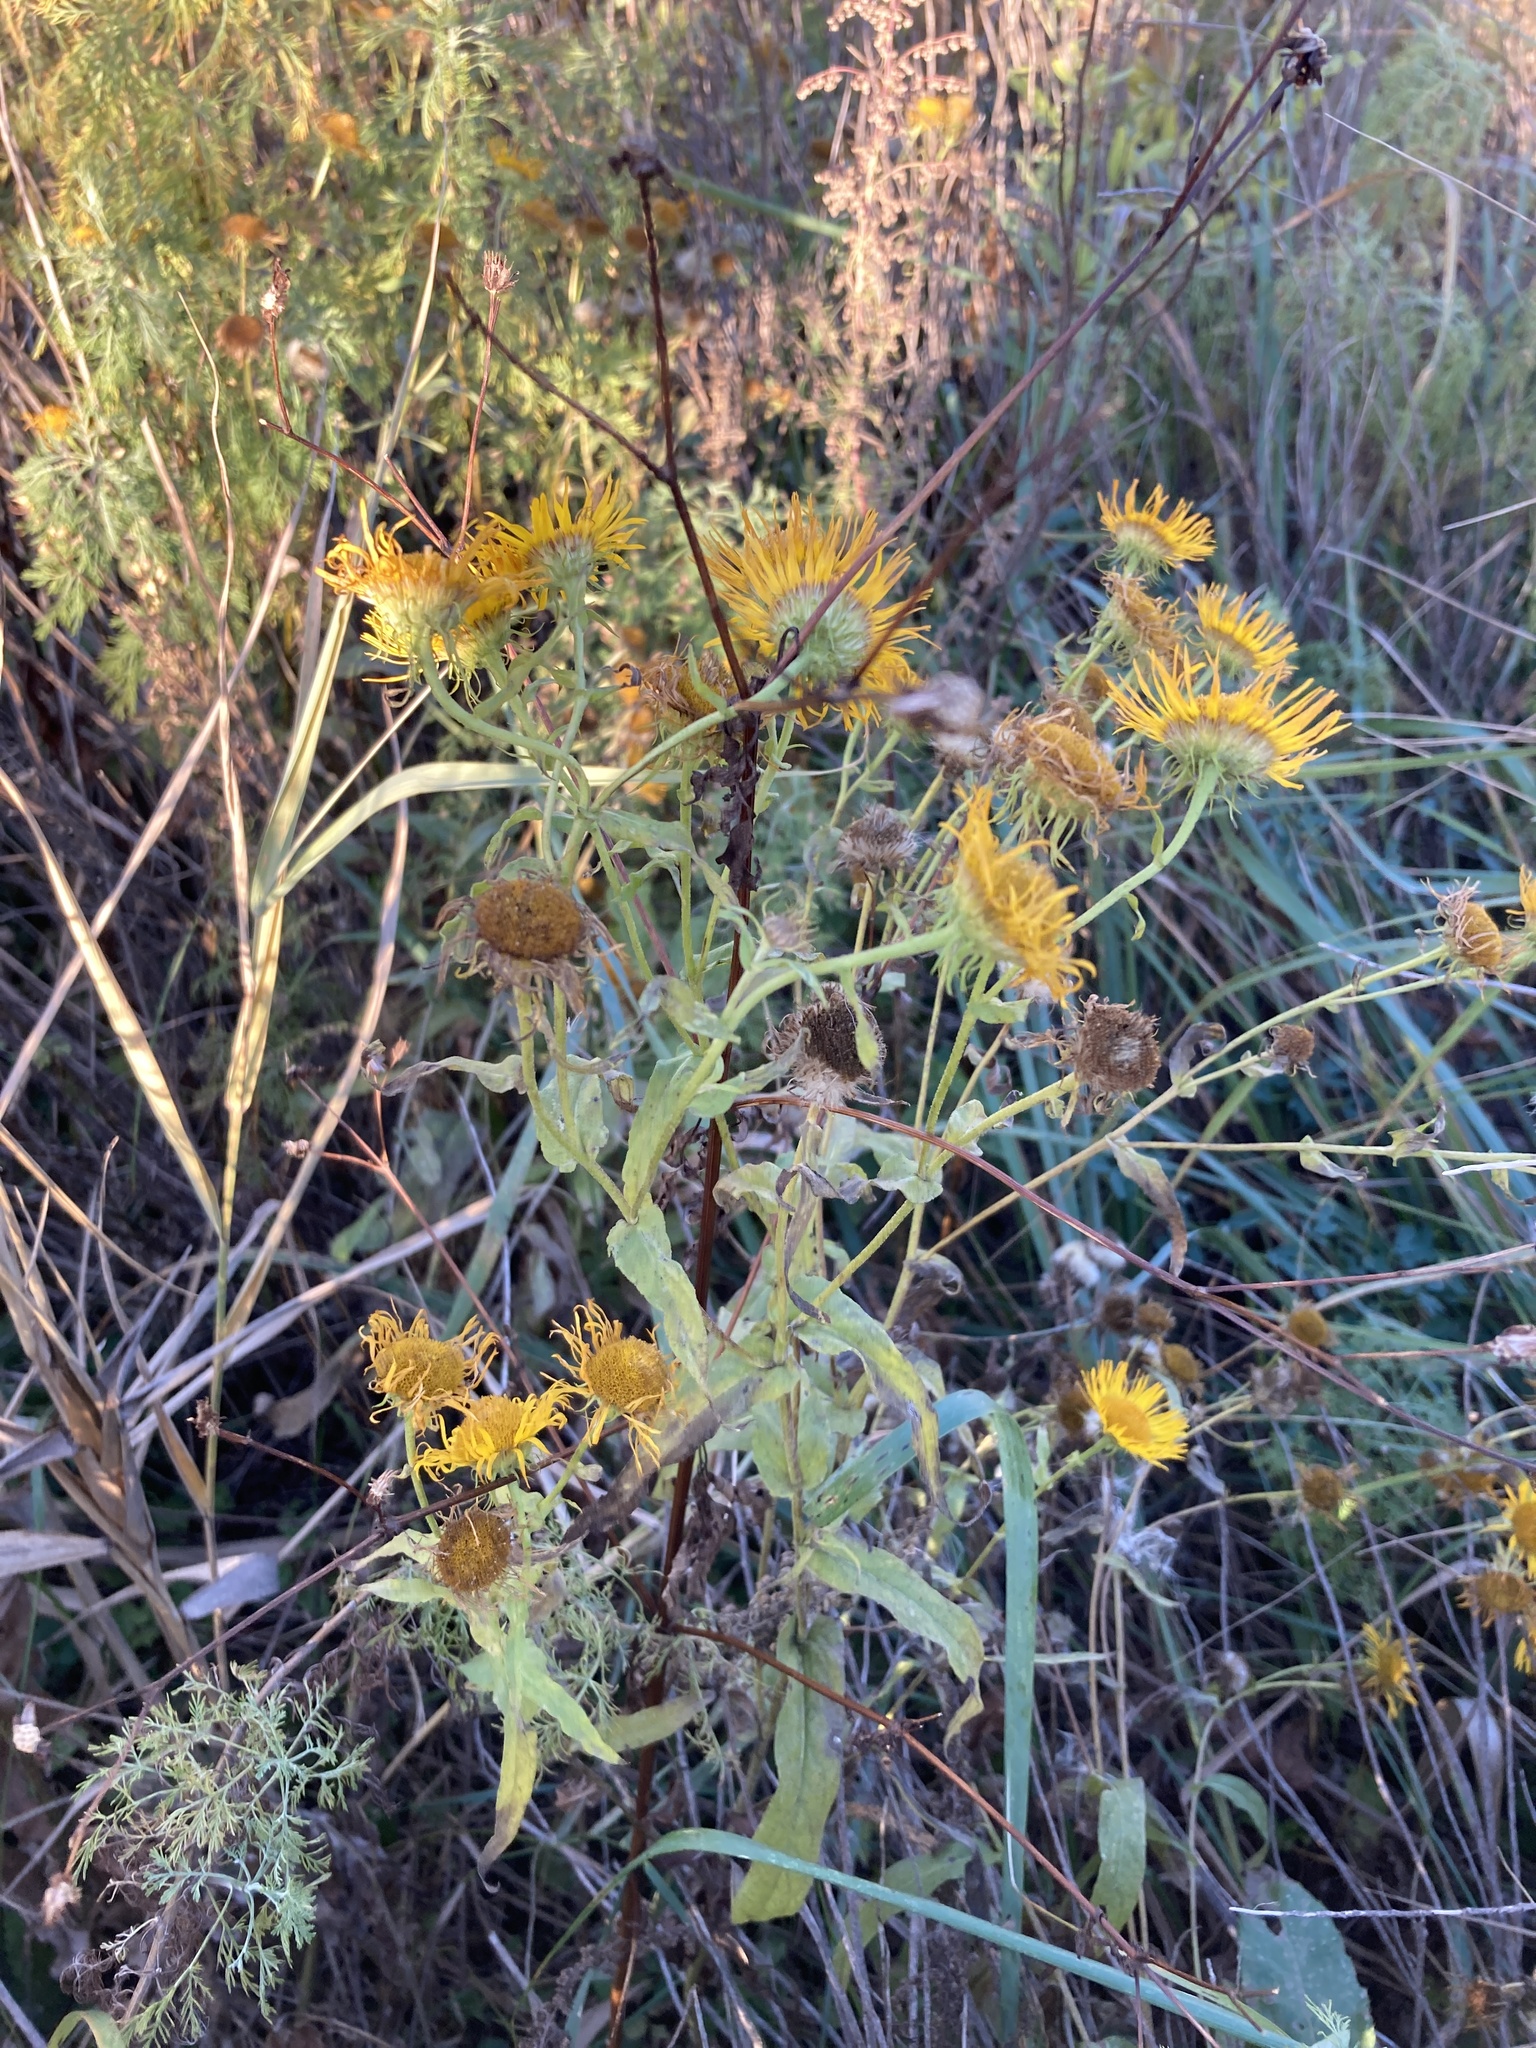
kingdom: Plantae
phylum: Tracheophyta
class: Magnoliopsida
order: Asterales
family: Asteraceae
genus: Pentanema
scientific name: Pentanema britannicum
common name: British elecampane
